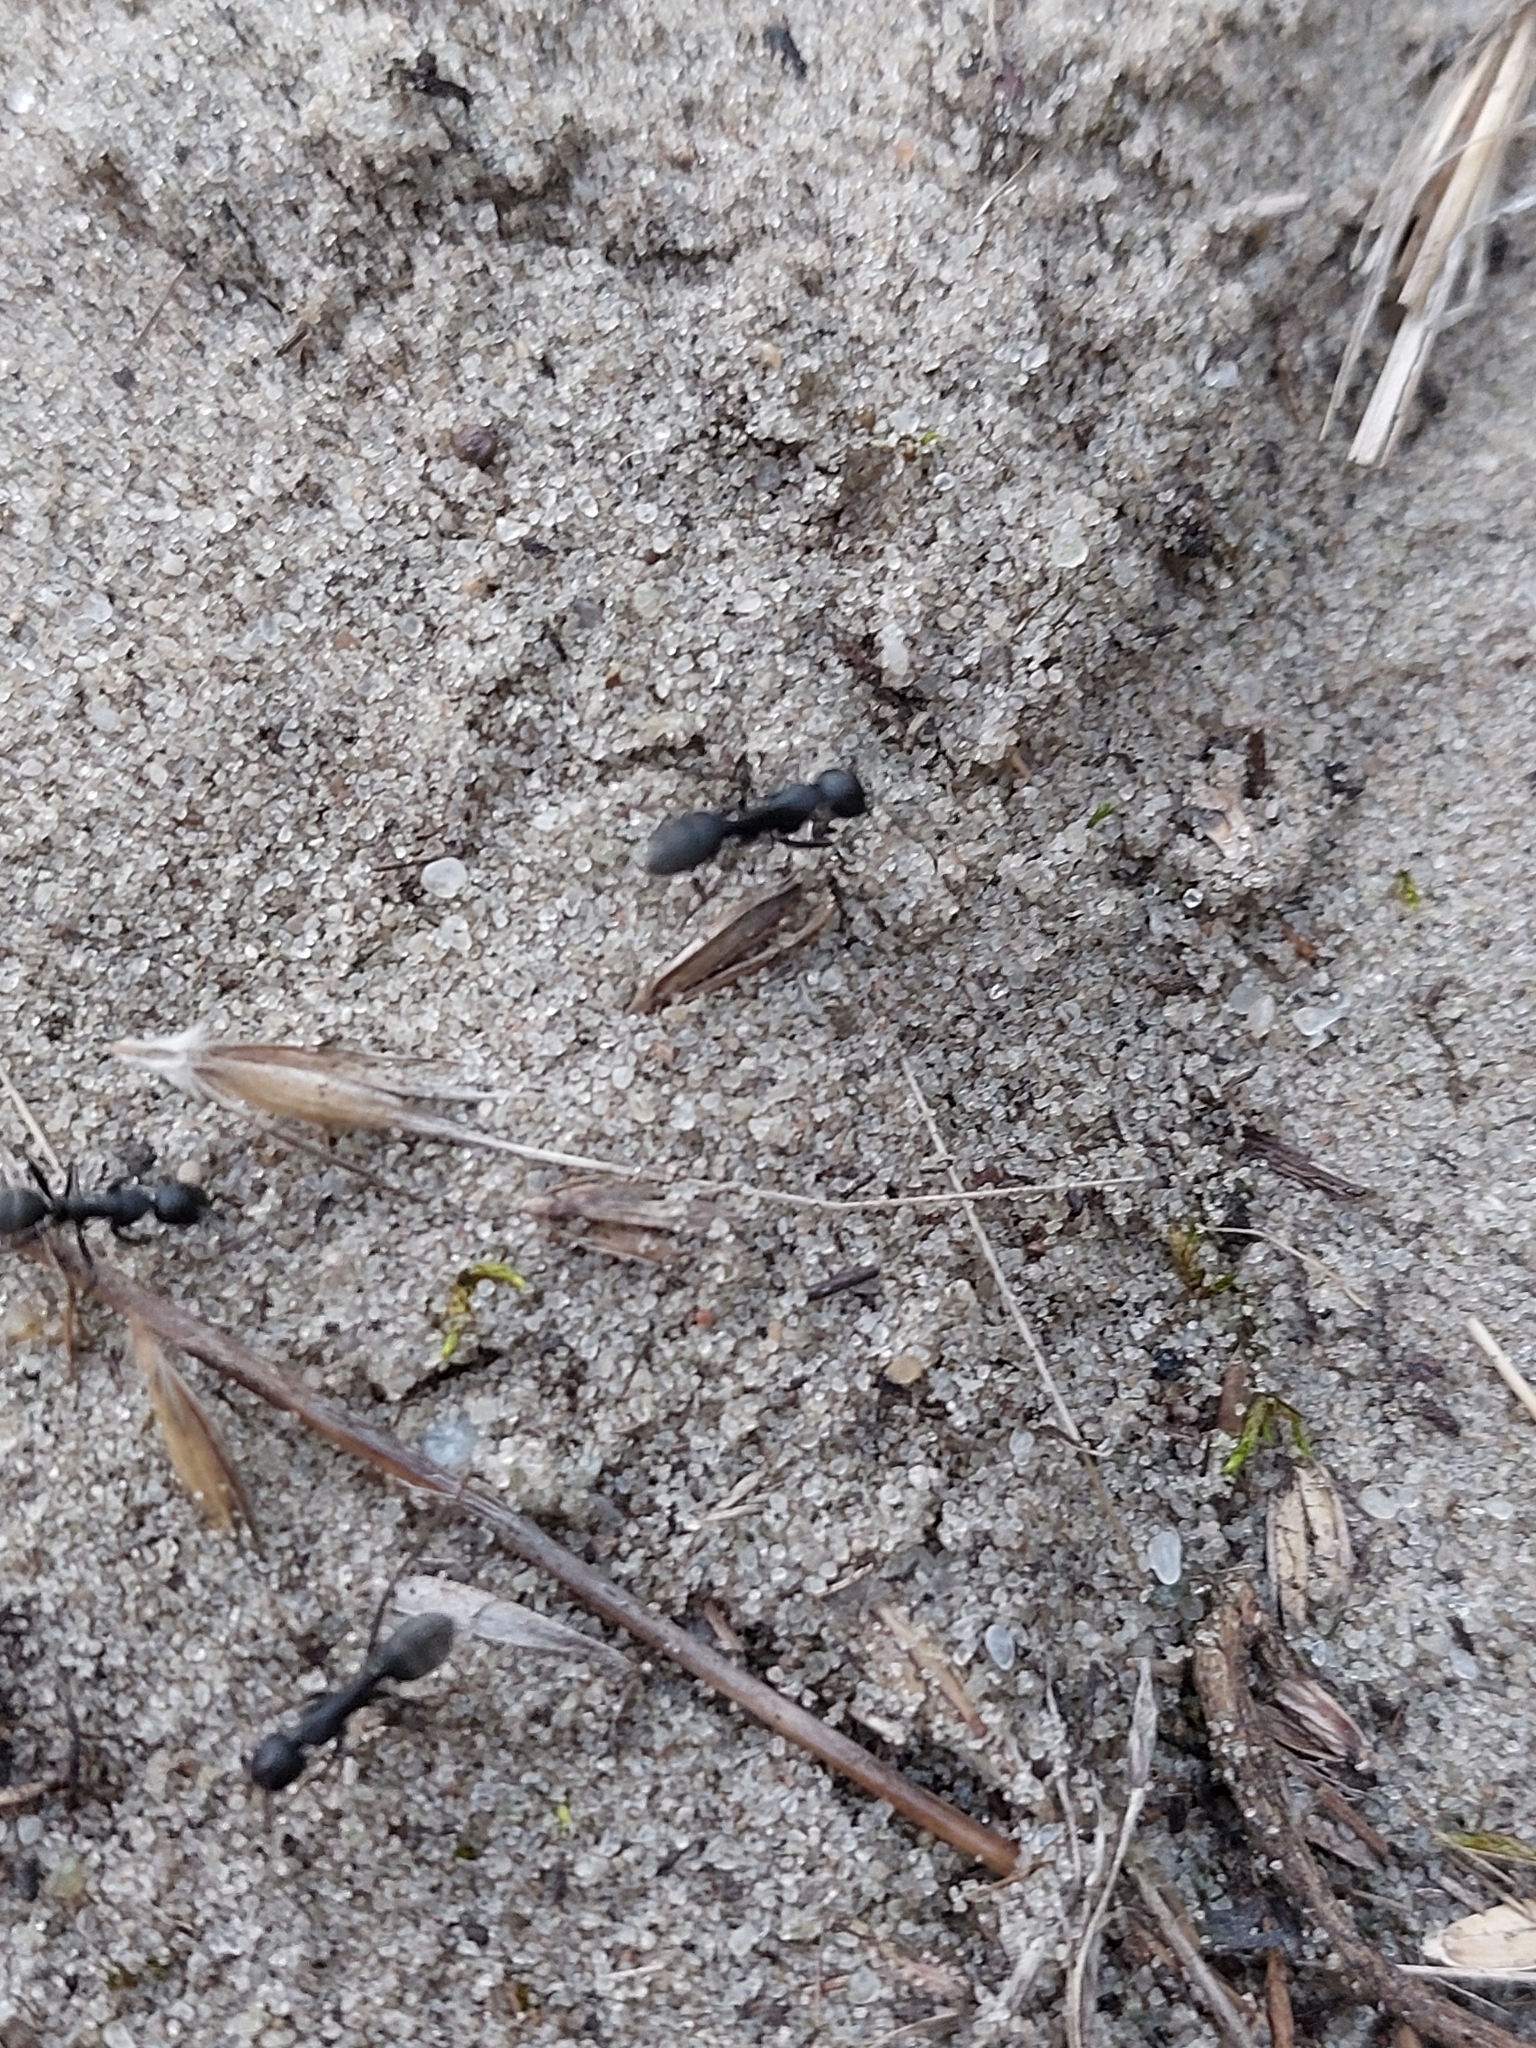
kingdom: Animalia
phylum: Arthropoda
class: Insecta
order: Hymenoptera
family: Formicidae
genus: Camponotus
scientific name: Camponotus vagus
